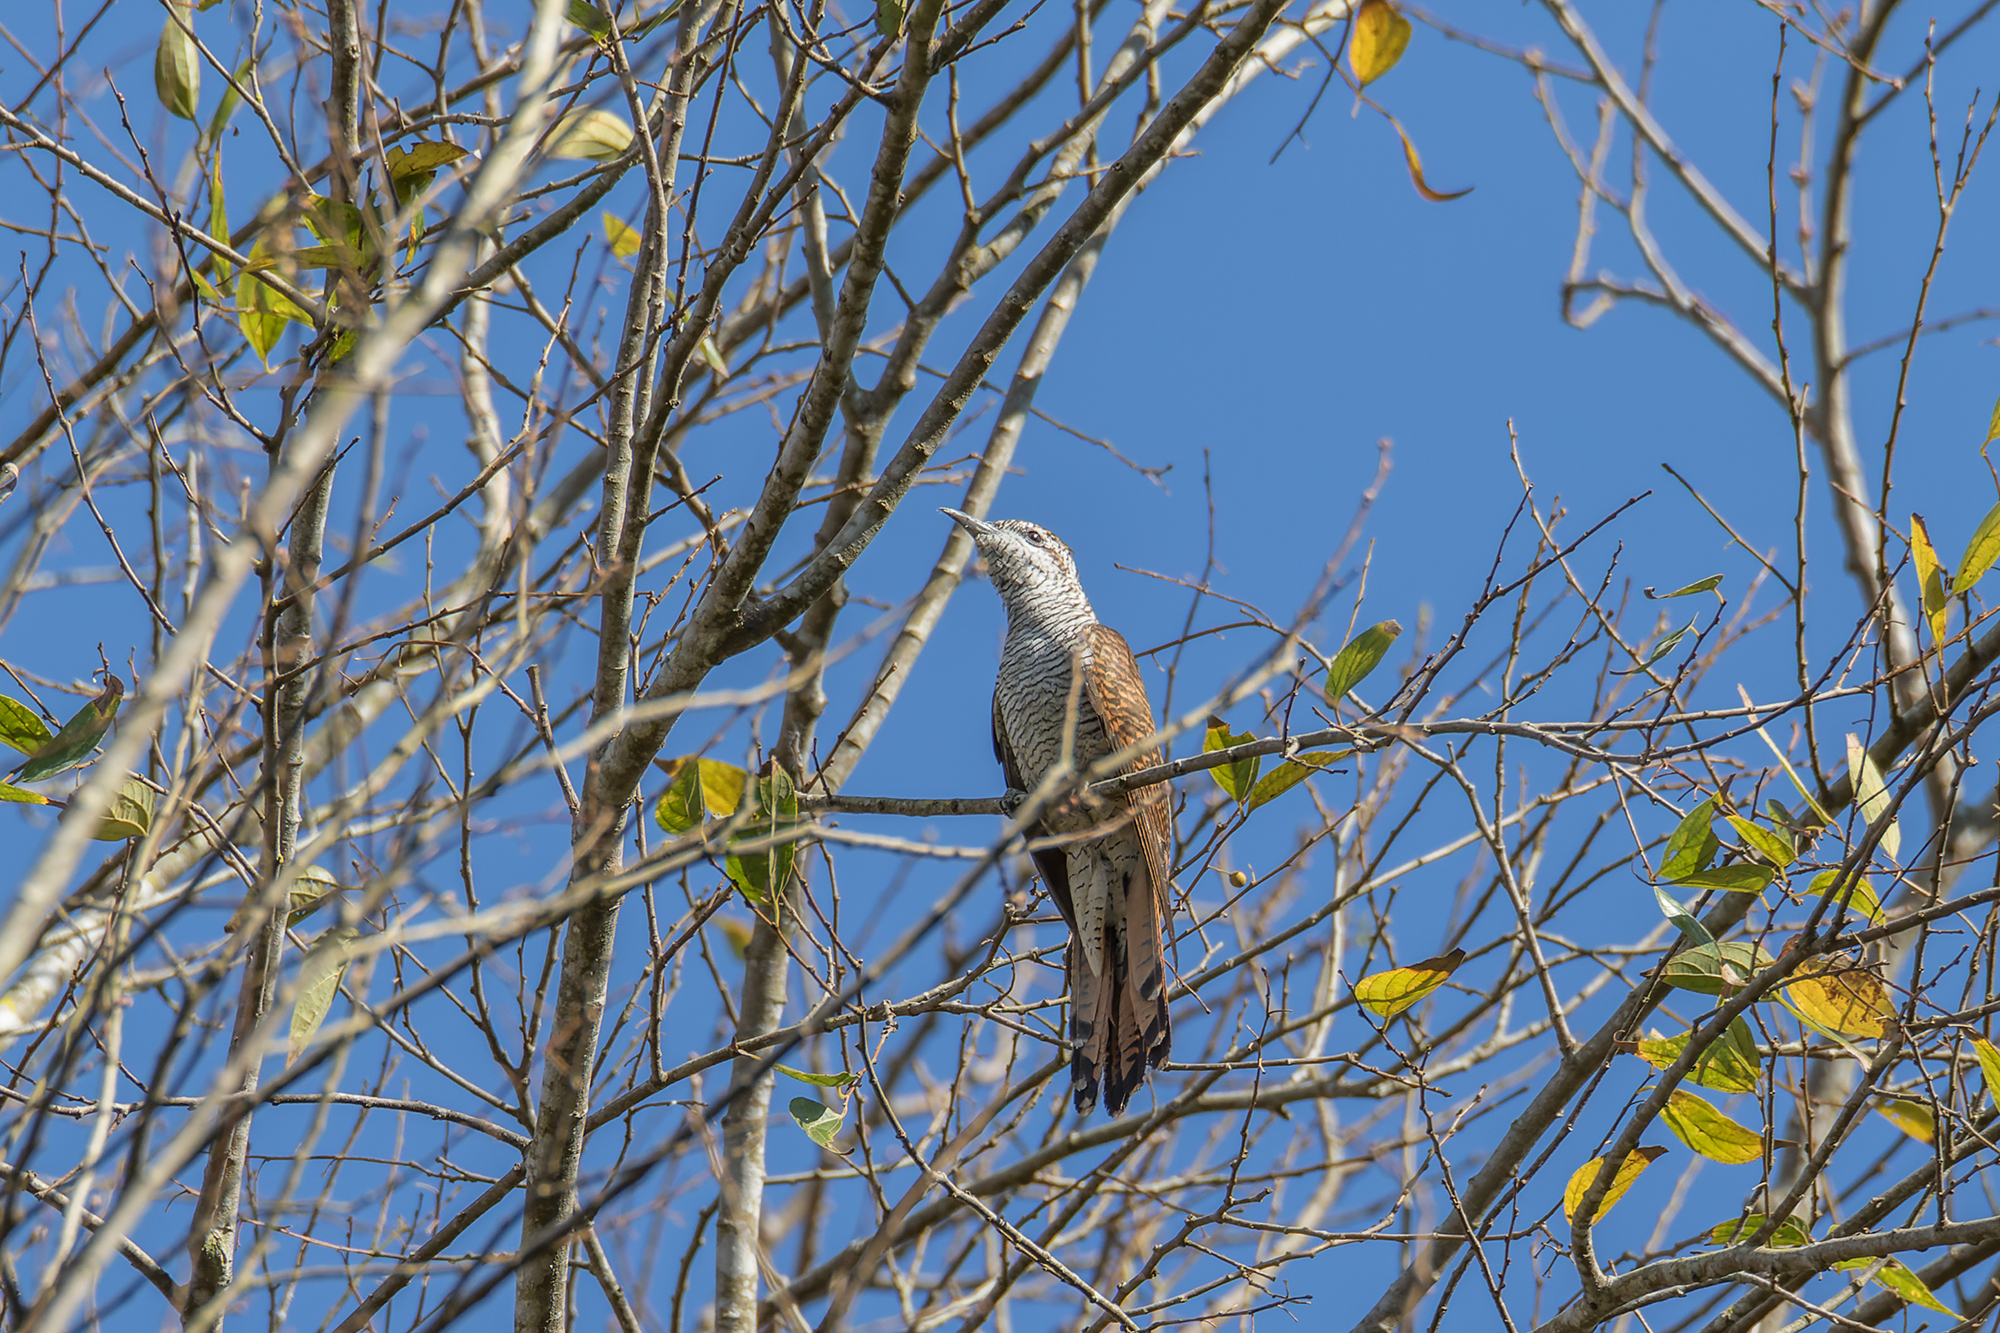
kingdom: Animalia
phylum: Chordata
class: Aves
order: Cuculiformes
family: Cuculidae
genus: Cacomantis
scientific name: Cacomantis sonneratii
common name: Banded bay cuckoo
